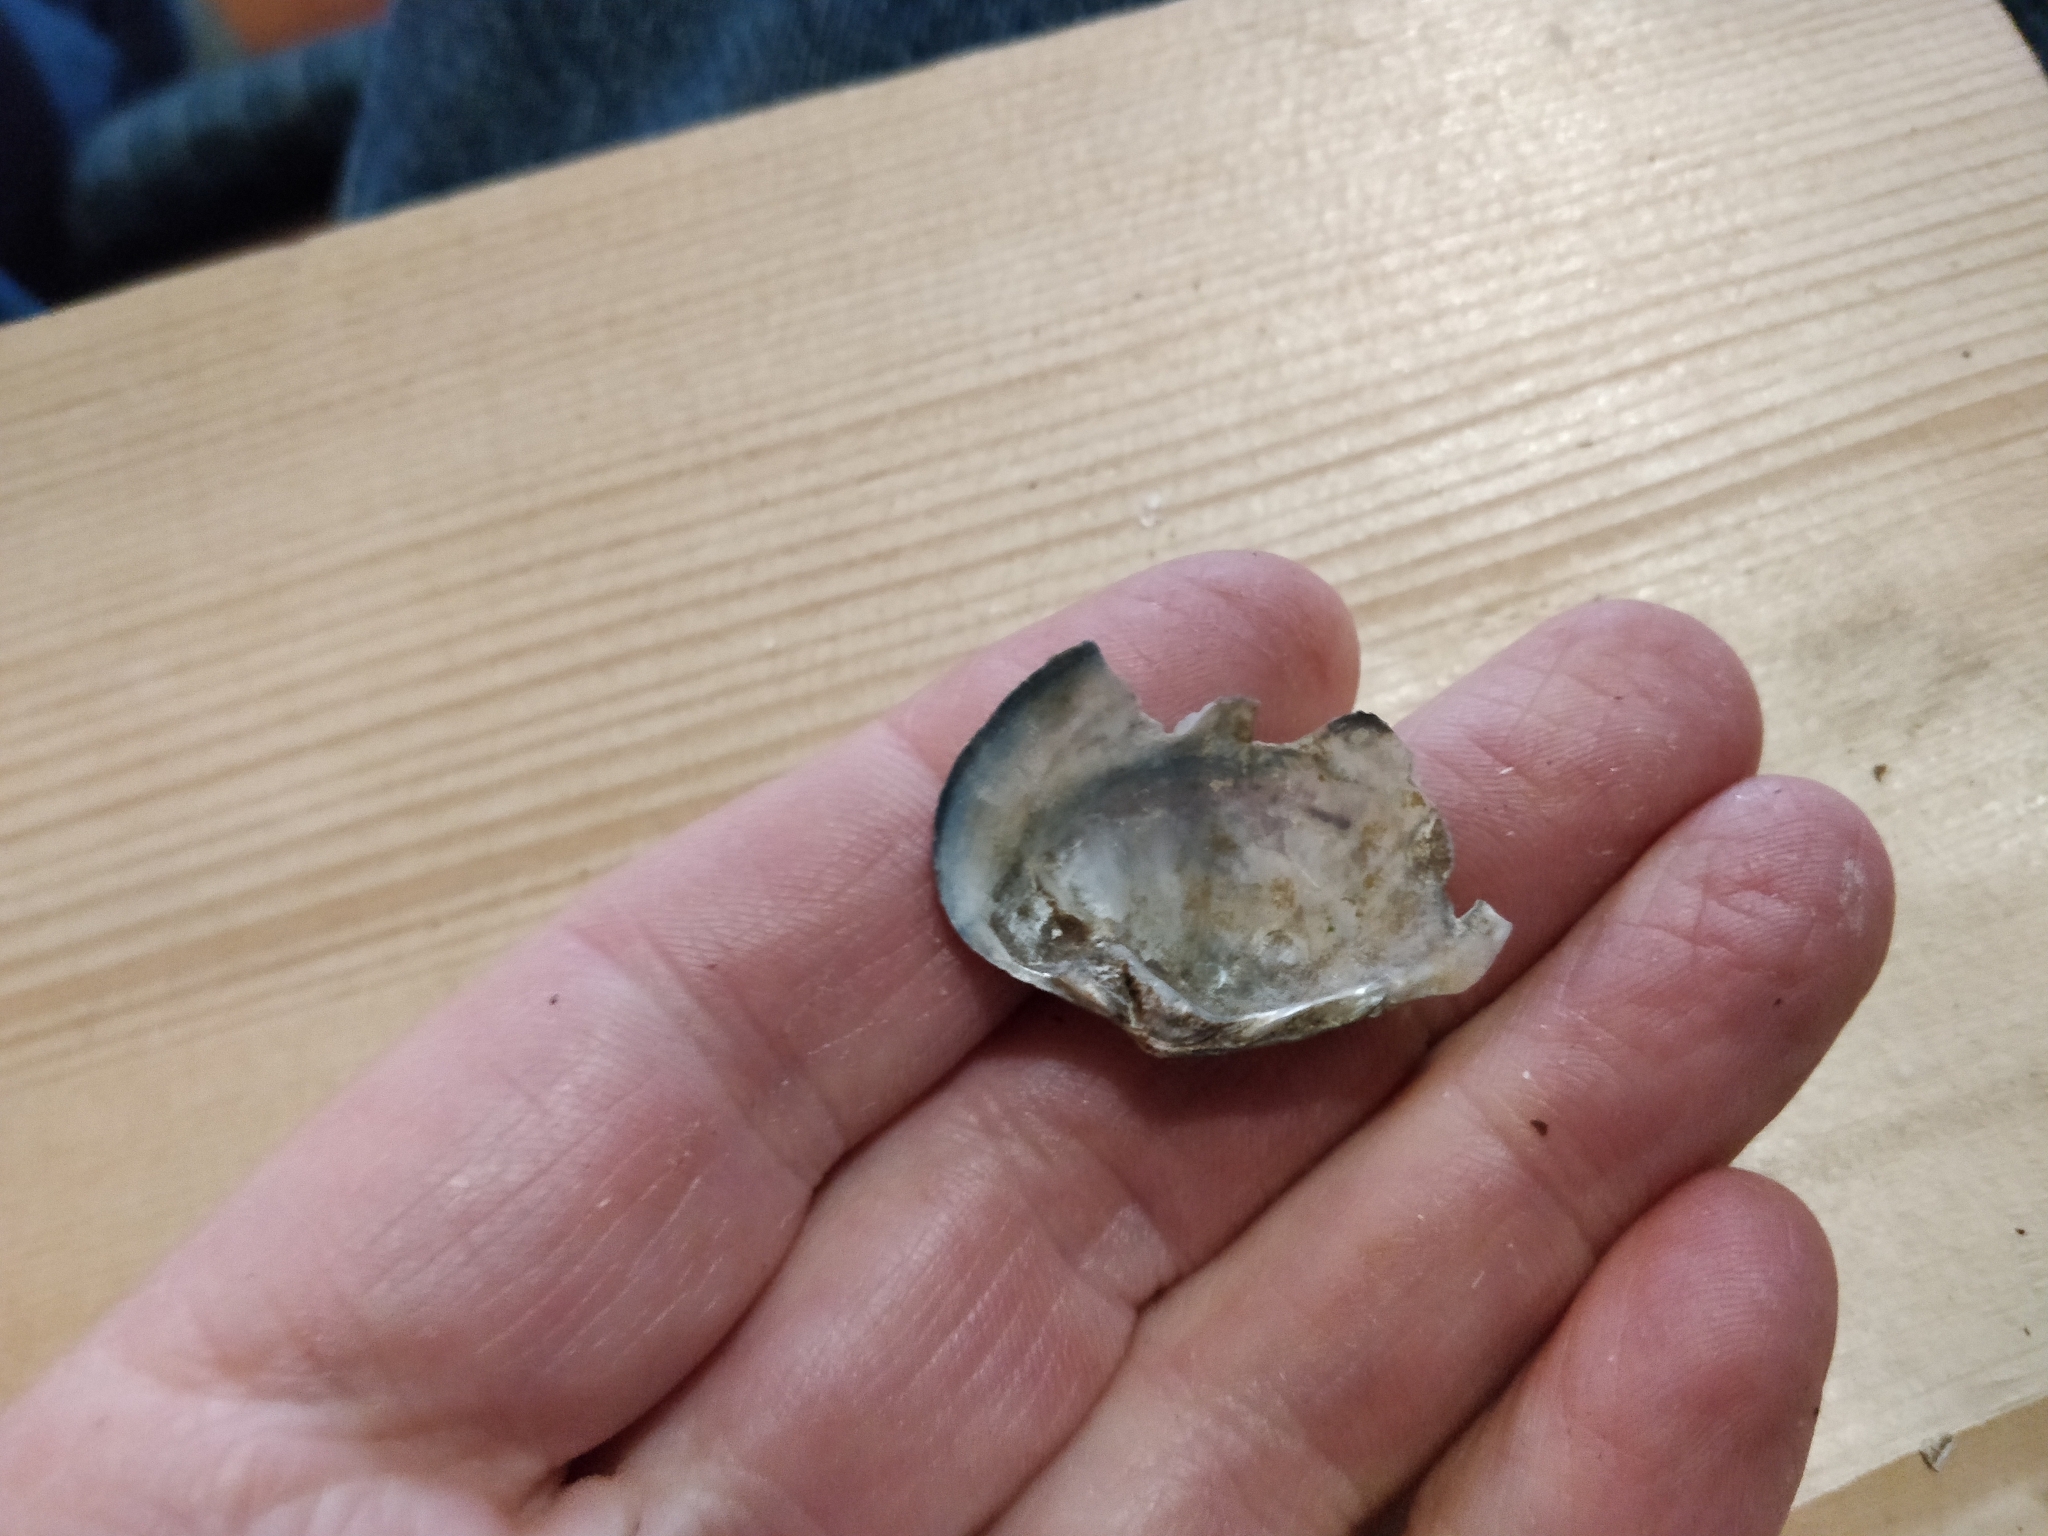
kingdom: Animalia
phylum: Mollusca
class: Bivalvia
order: Unionida
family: Unionidae
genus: Lasmigona
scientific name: Lasmigona complanata
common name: White heelsplitter
